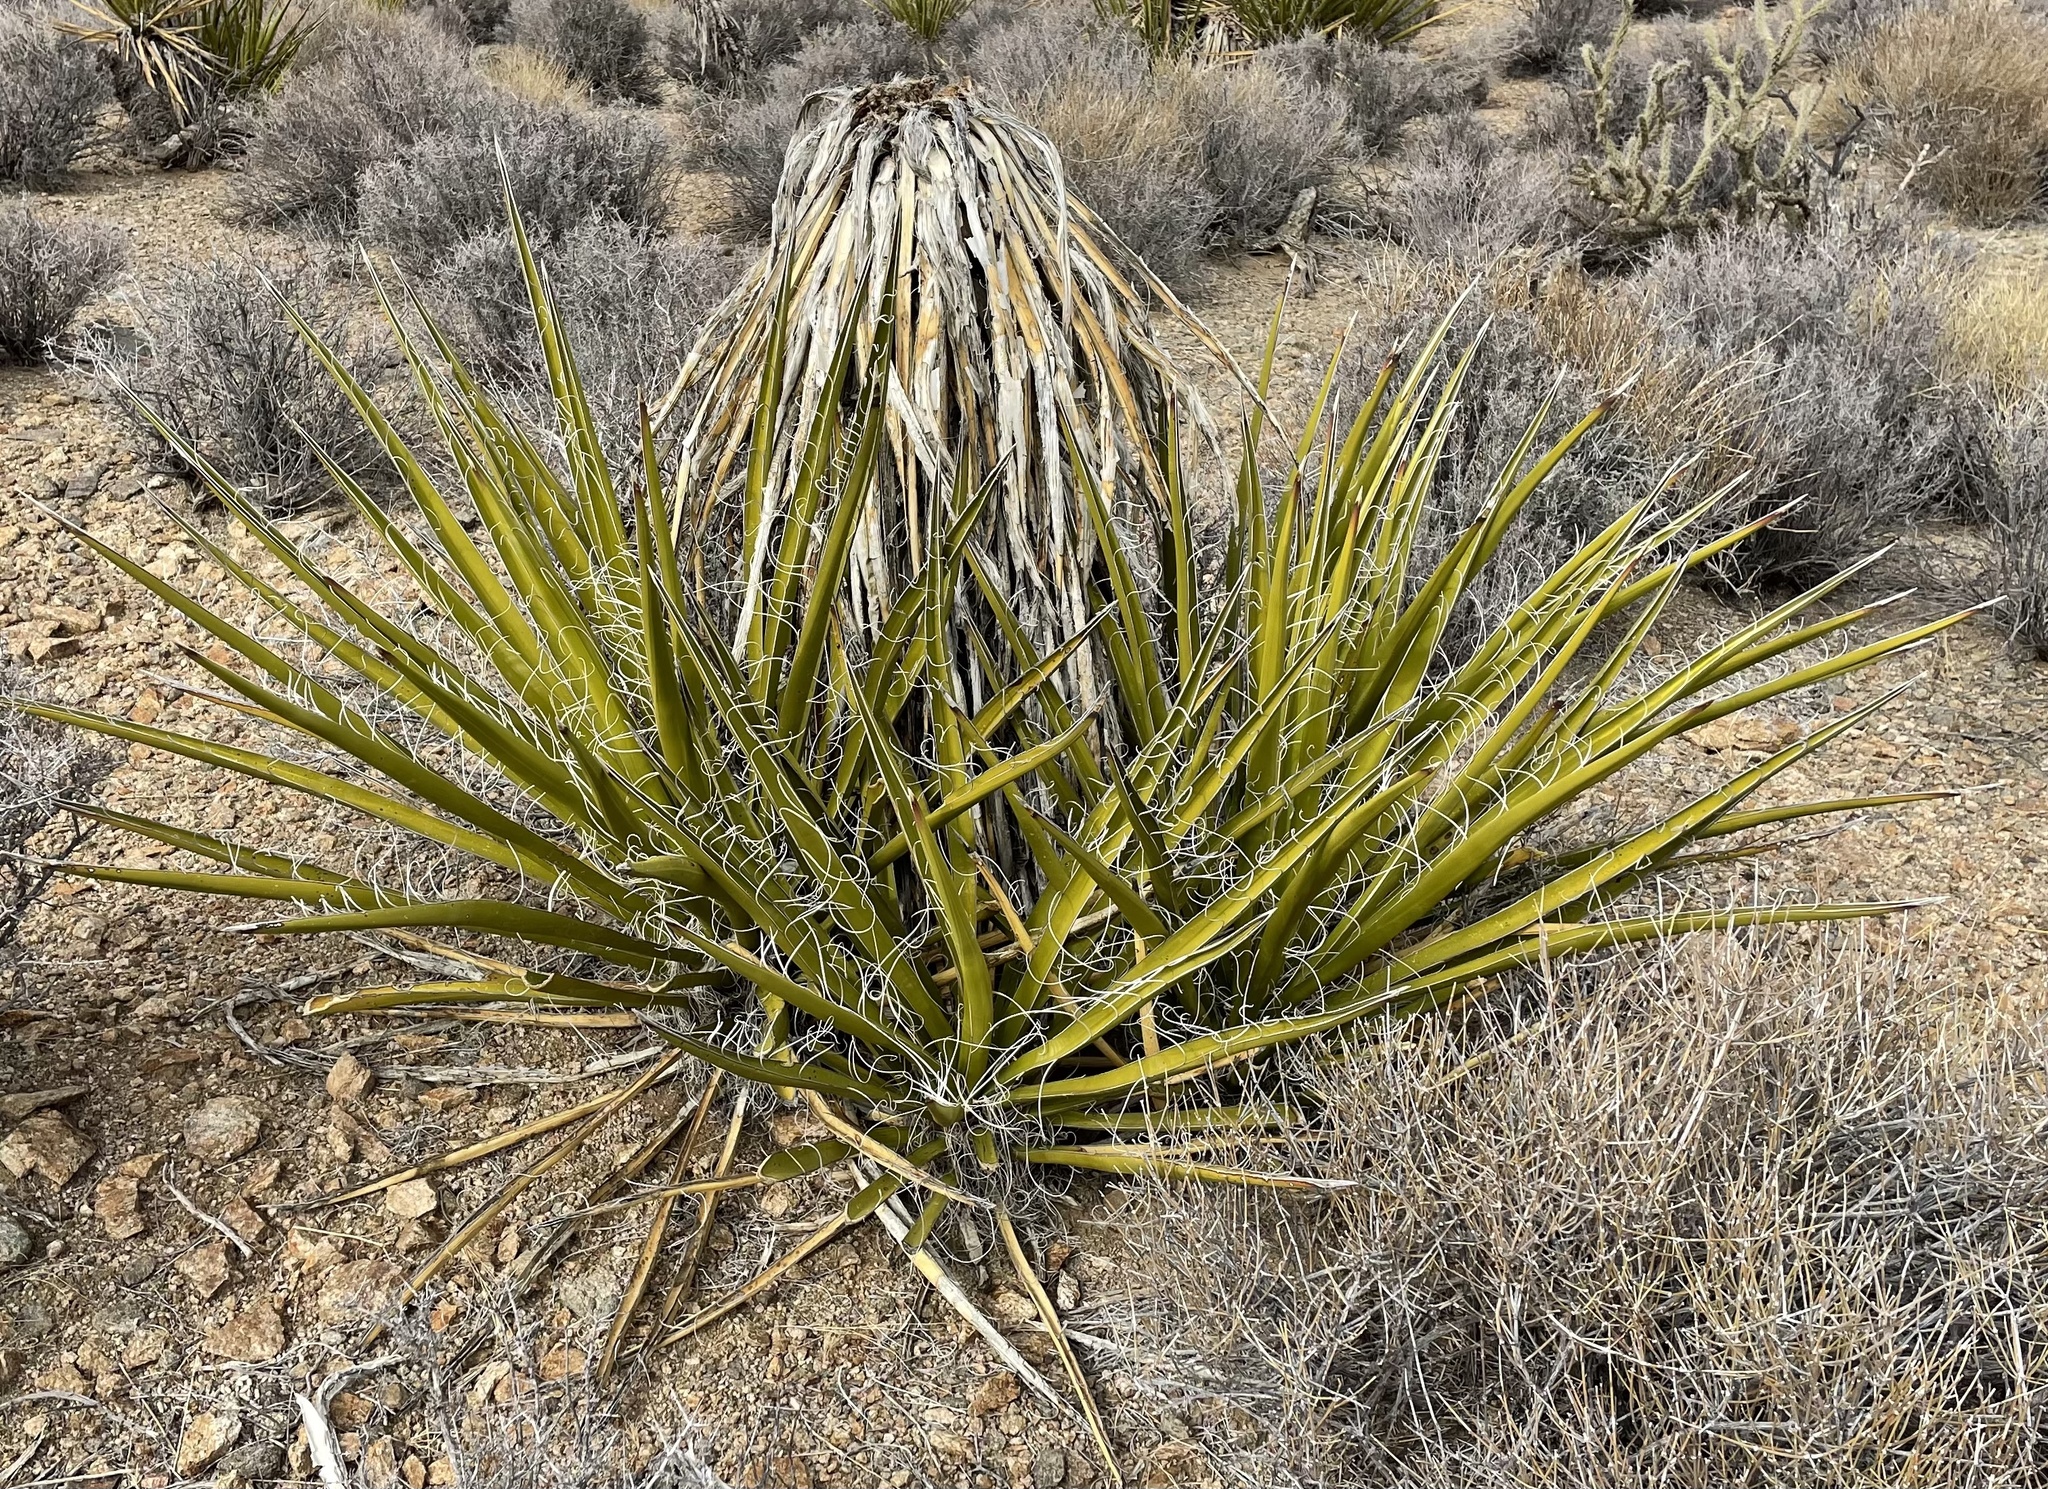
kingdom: Plantae
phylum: Tracheophyta
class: Liliopsida
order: Asparagales
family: Asparagaceae
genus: Yucca
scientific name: Yucca schidigera
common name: Mojave yucca
